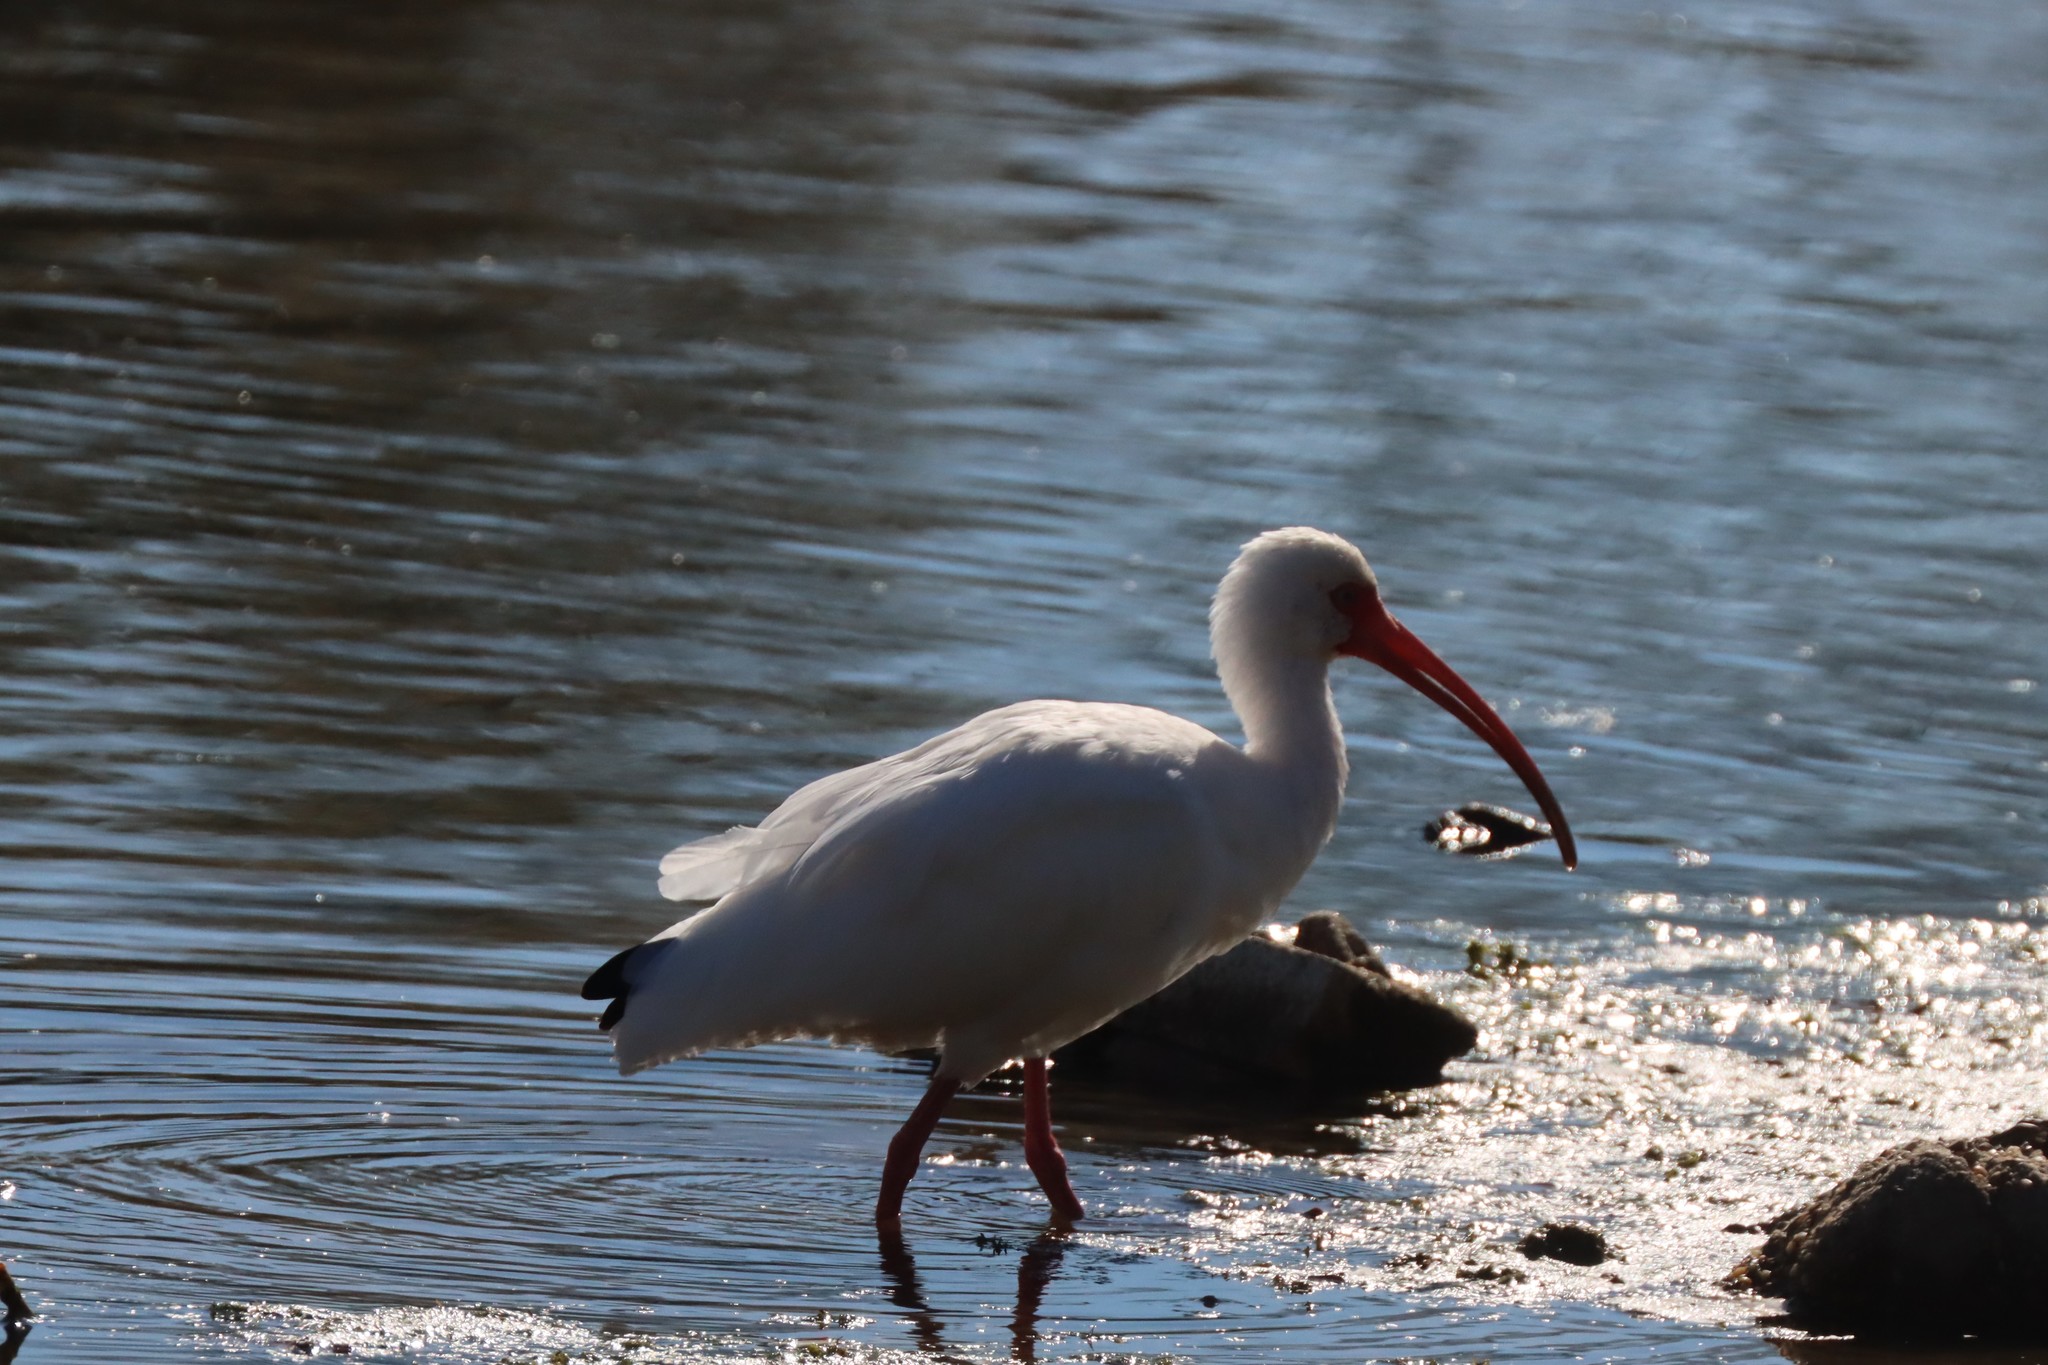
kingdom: Animalia
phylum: Chordata
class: Aves
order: Pelecaniformes
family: Threskiornithidae
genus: Eudocimus
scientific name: Eudocimus albus
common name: White ibis
